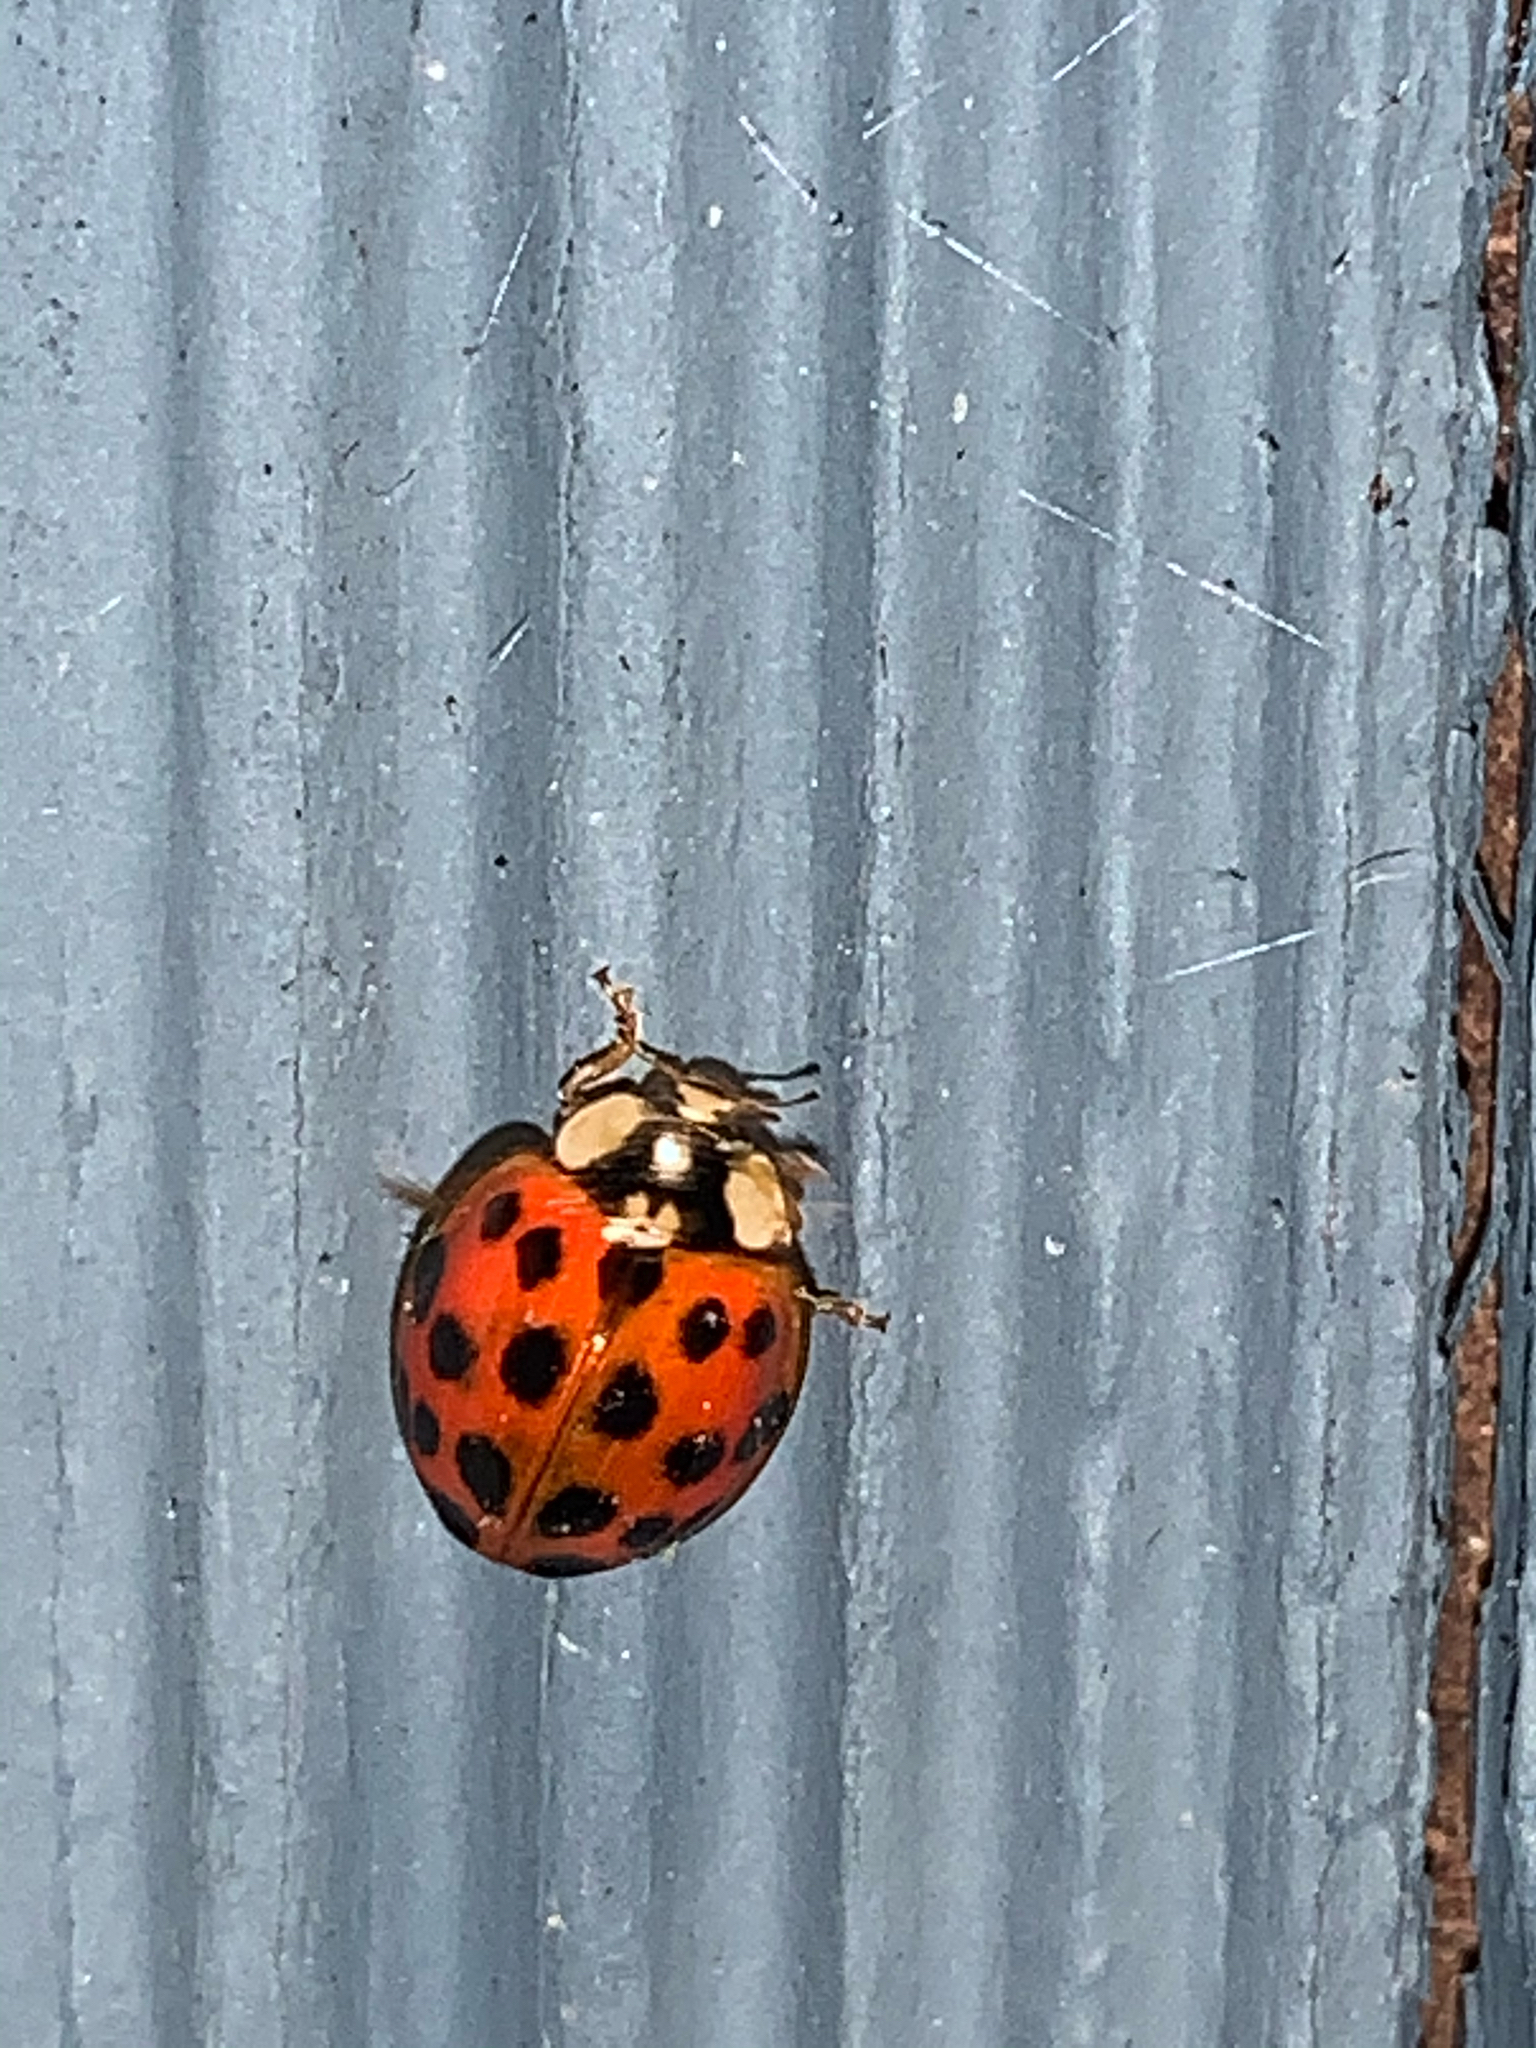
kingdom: Animalia
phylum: Arthropoda
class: Insecta
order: Coleoptera
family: Coccinellidae
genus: Harmonia
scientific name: Harmonia axyridis
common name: Harlequin ladybird
